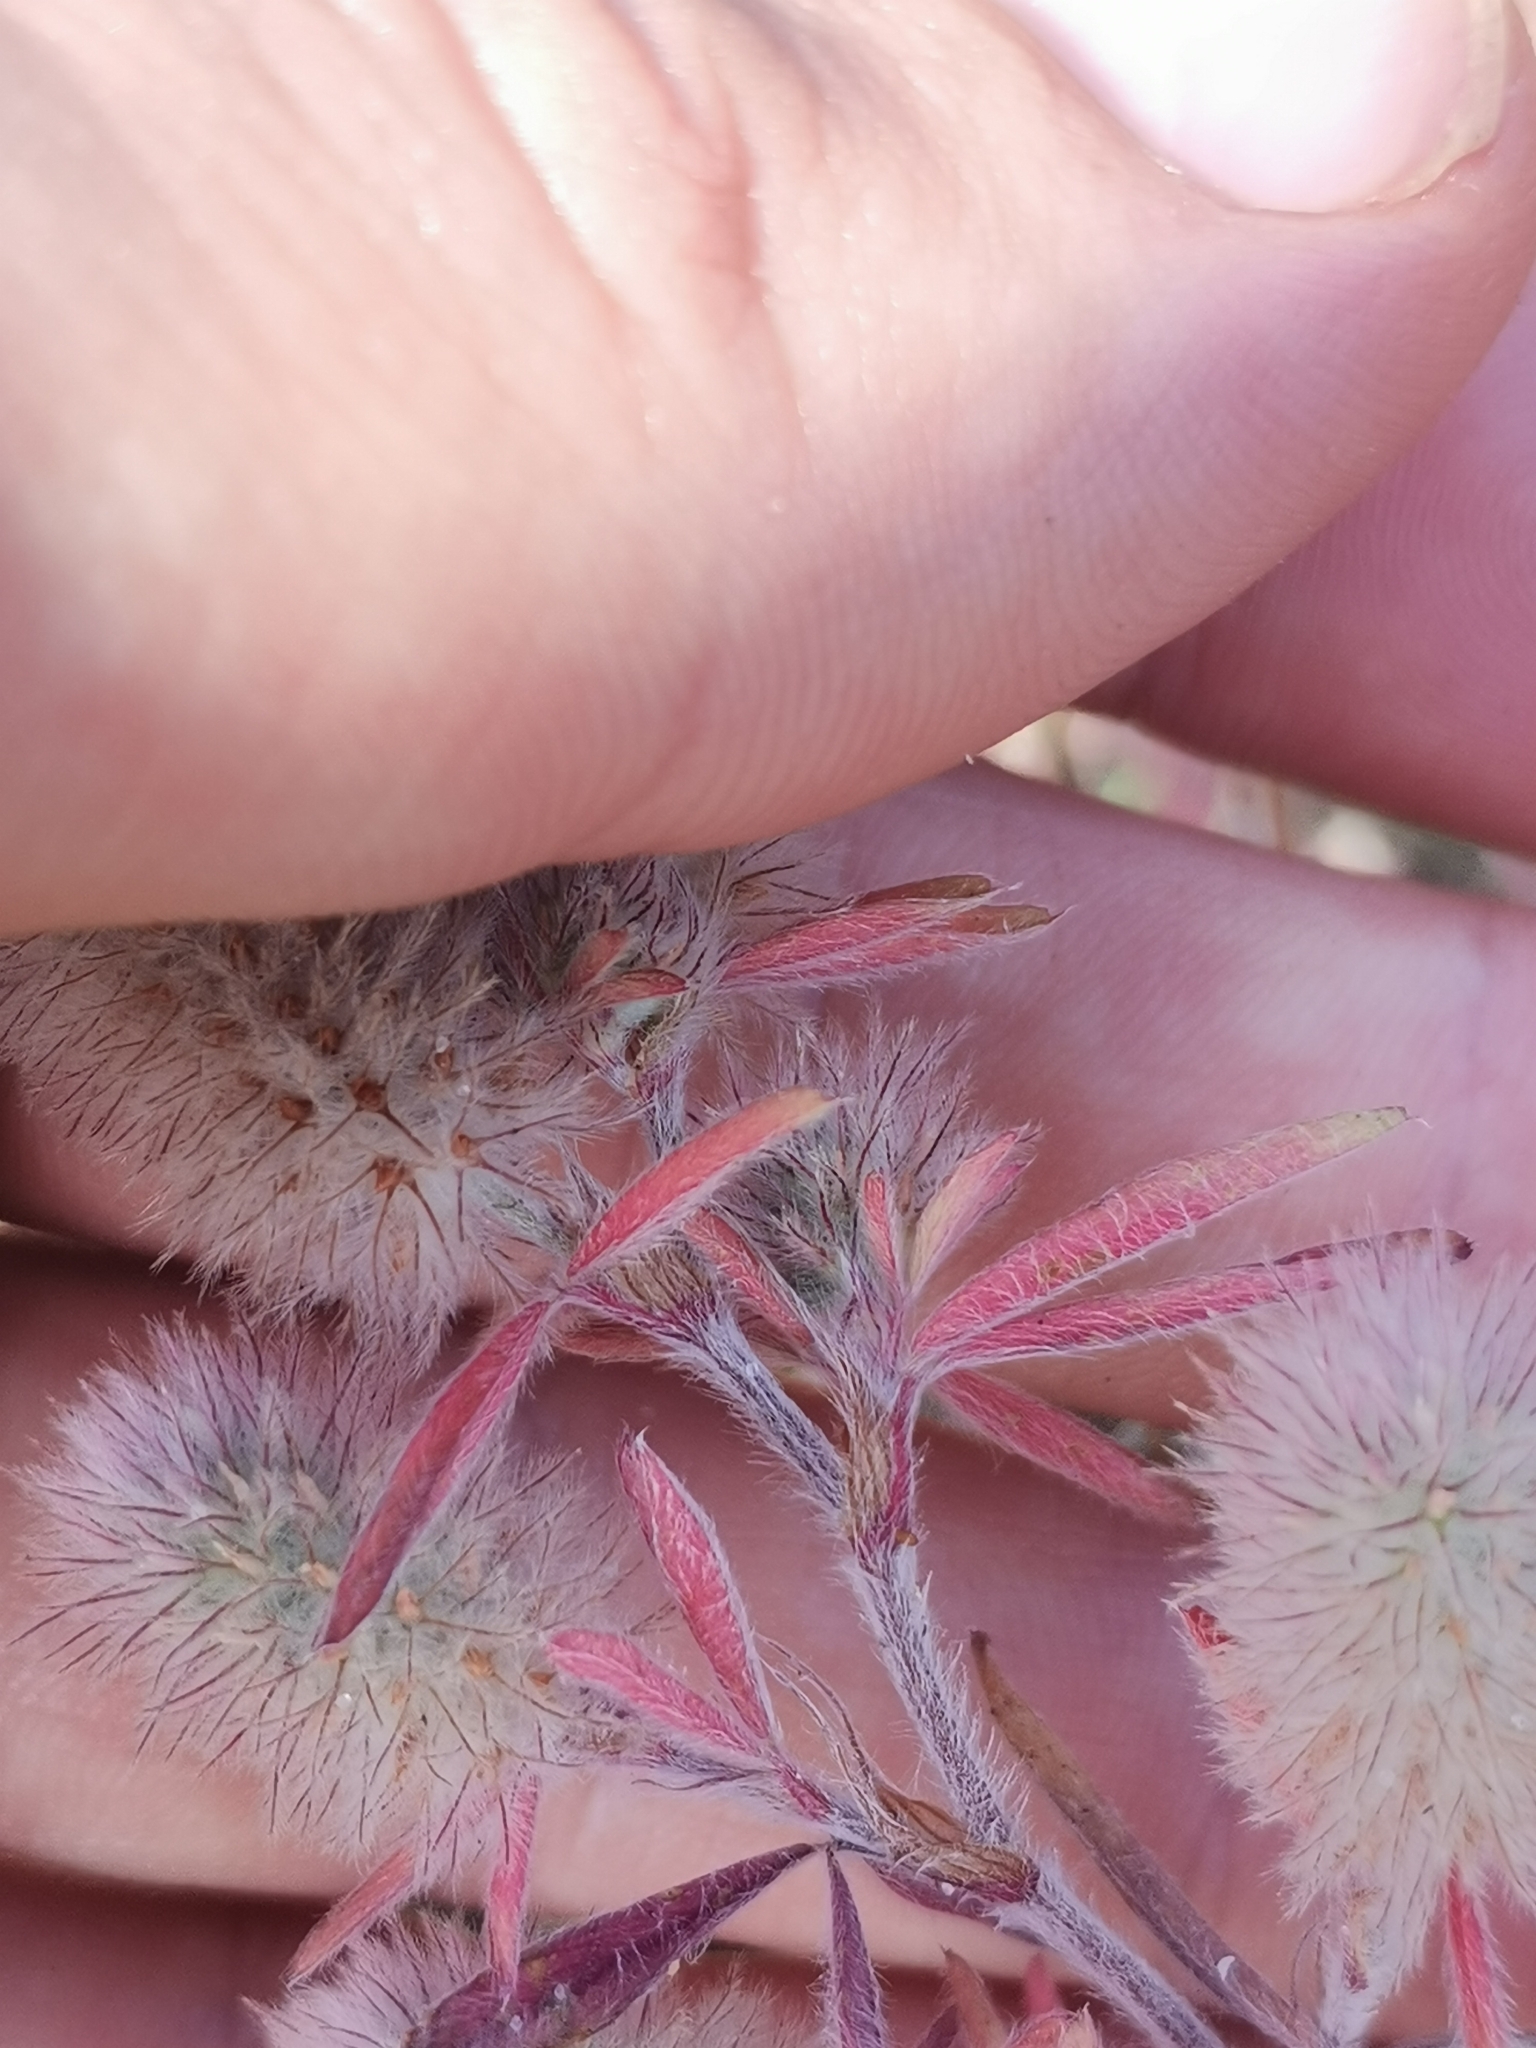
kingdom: Plantae
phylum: Tracheophyta
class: Magnoliopsida
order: Fabales
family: Fabaceae
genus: Trifolium
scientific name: Trifolium arvense
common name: Hare's-foot clover
